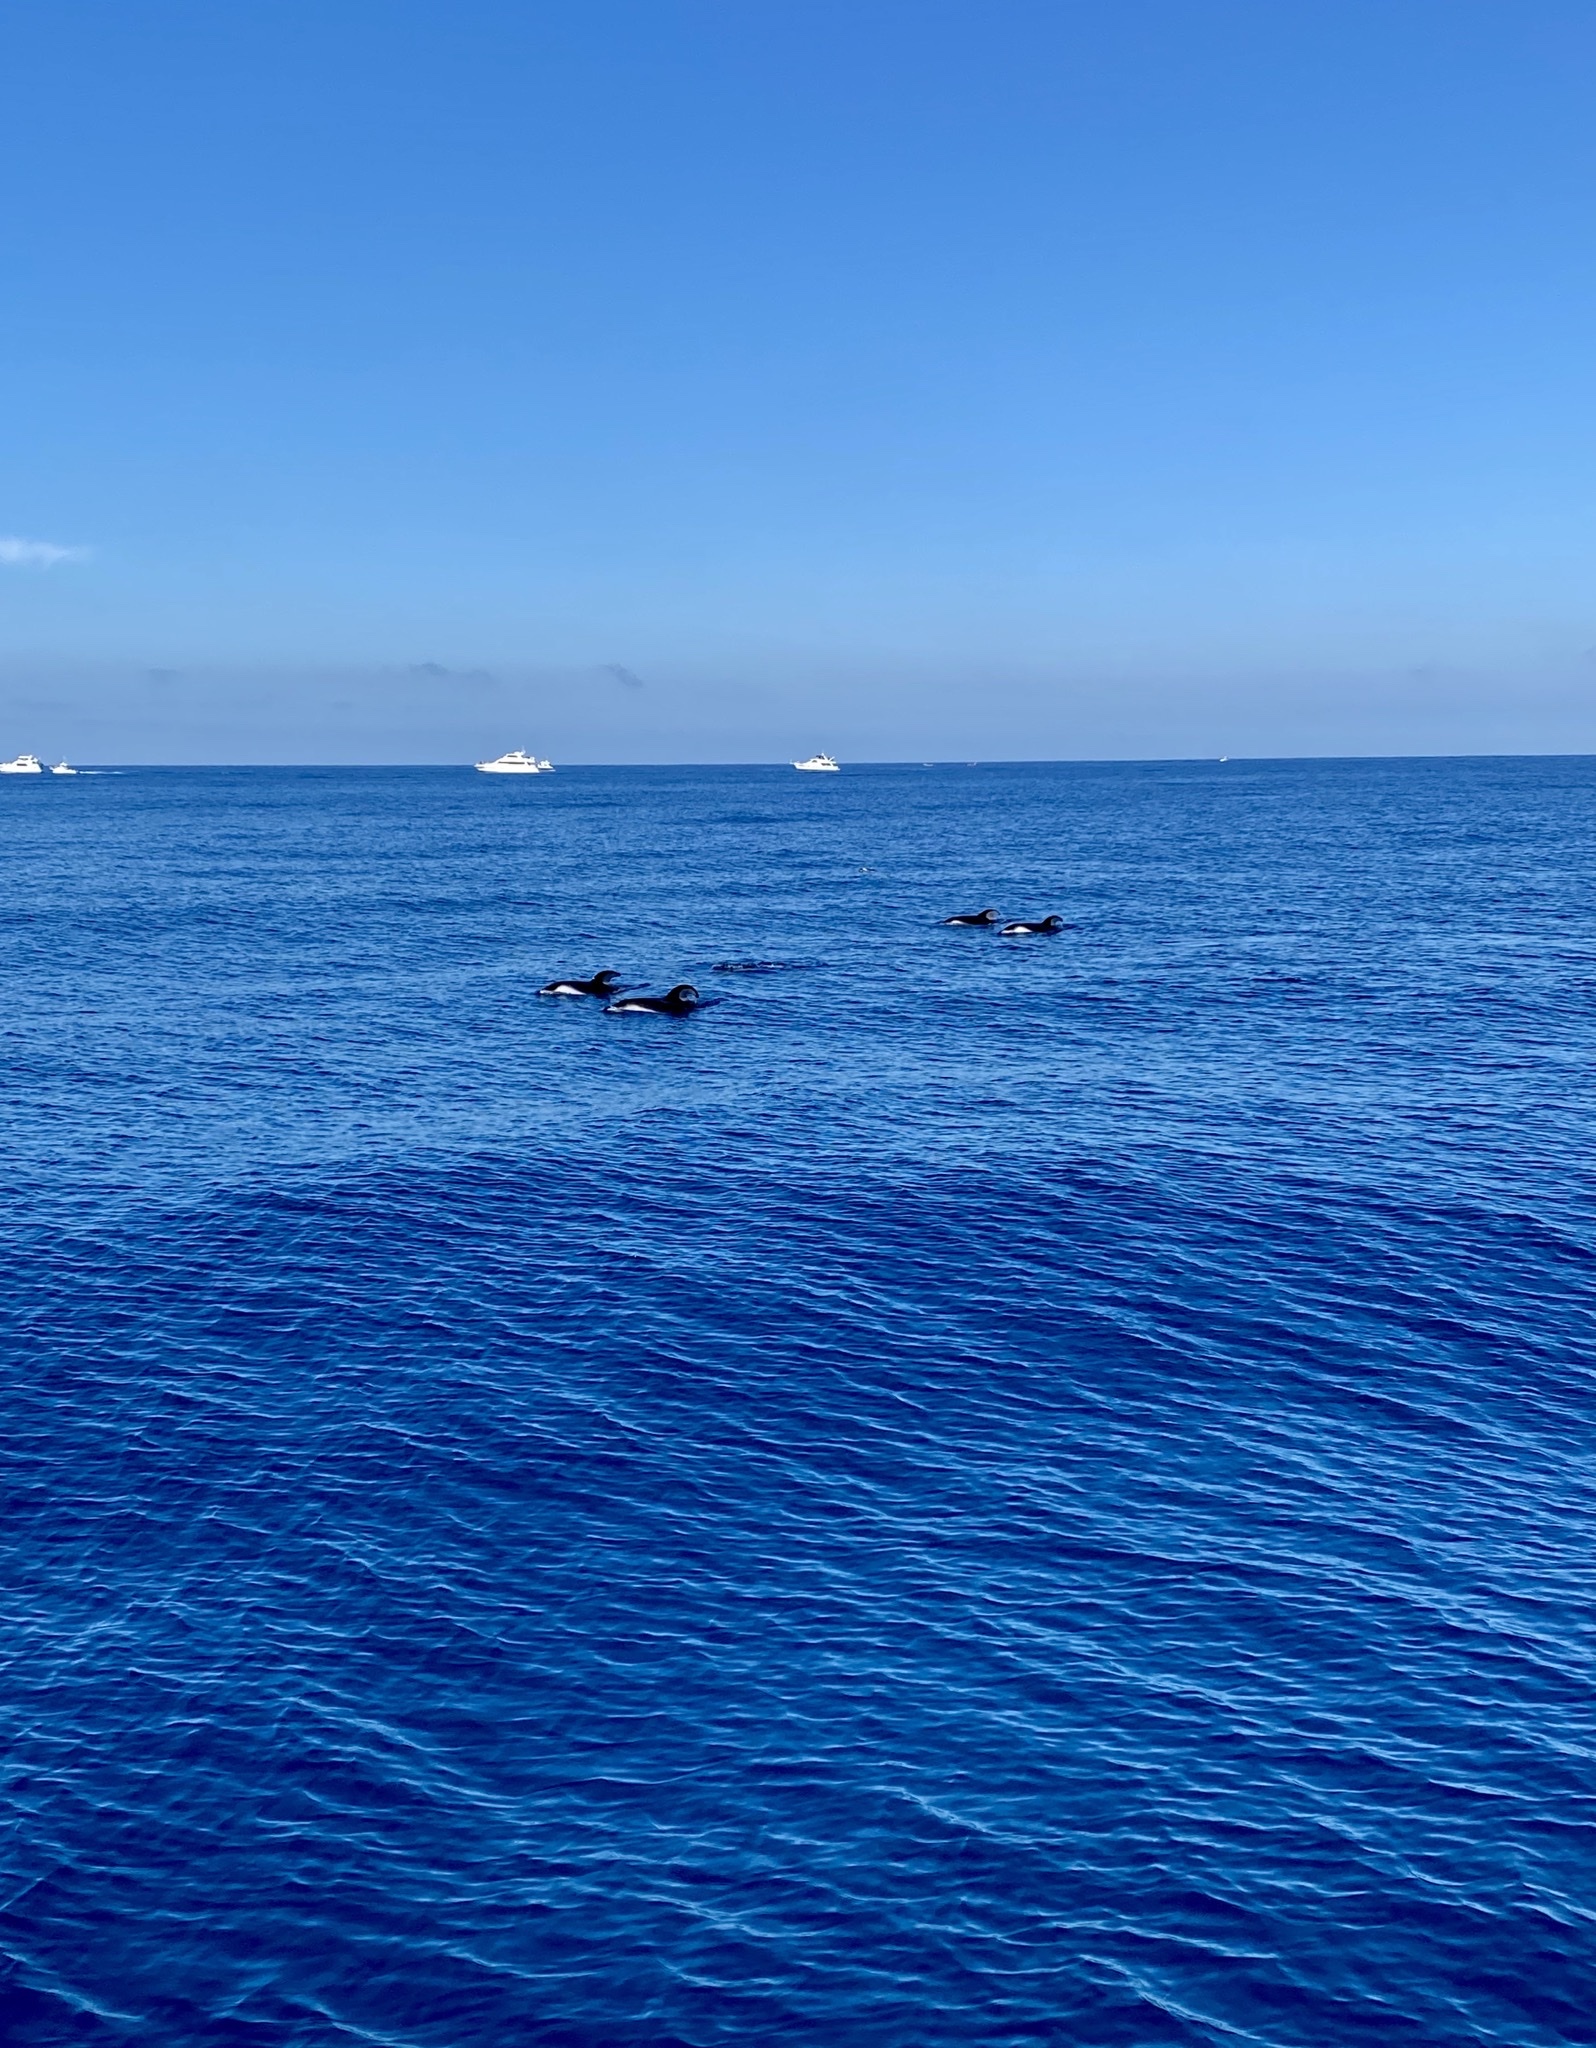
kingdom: Animalia
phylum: Chordata
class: Mammalia
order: Cetacea
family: Delphinidae
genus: Lagenorhynchus
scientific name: Lagenorhynchus obliquidens
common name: Pacific white-sided dolphin
